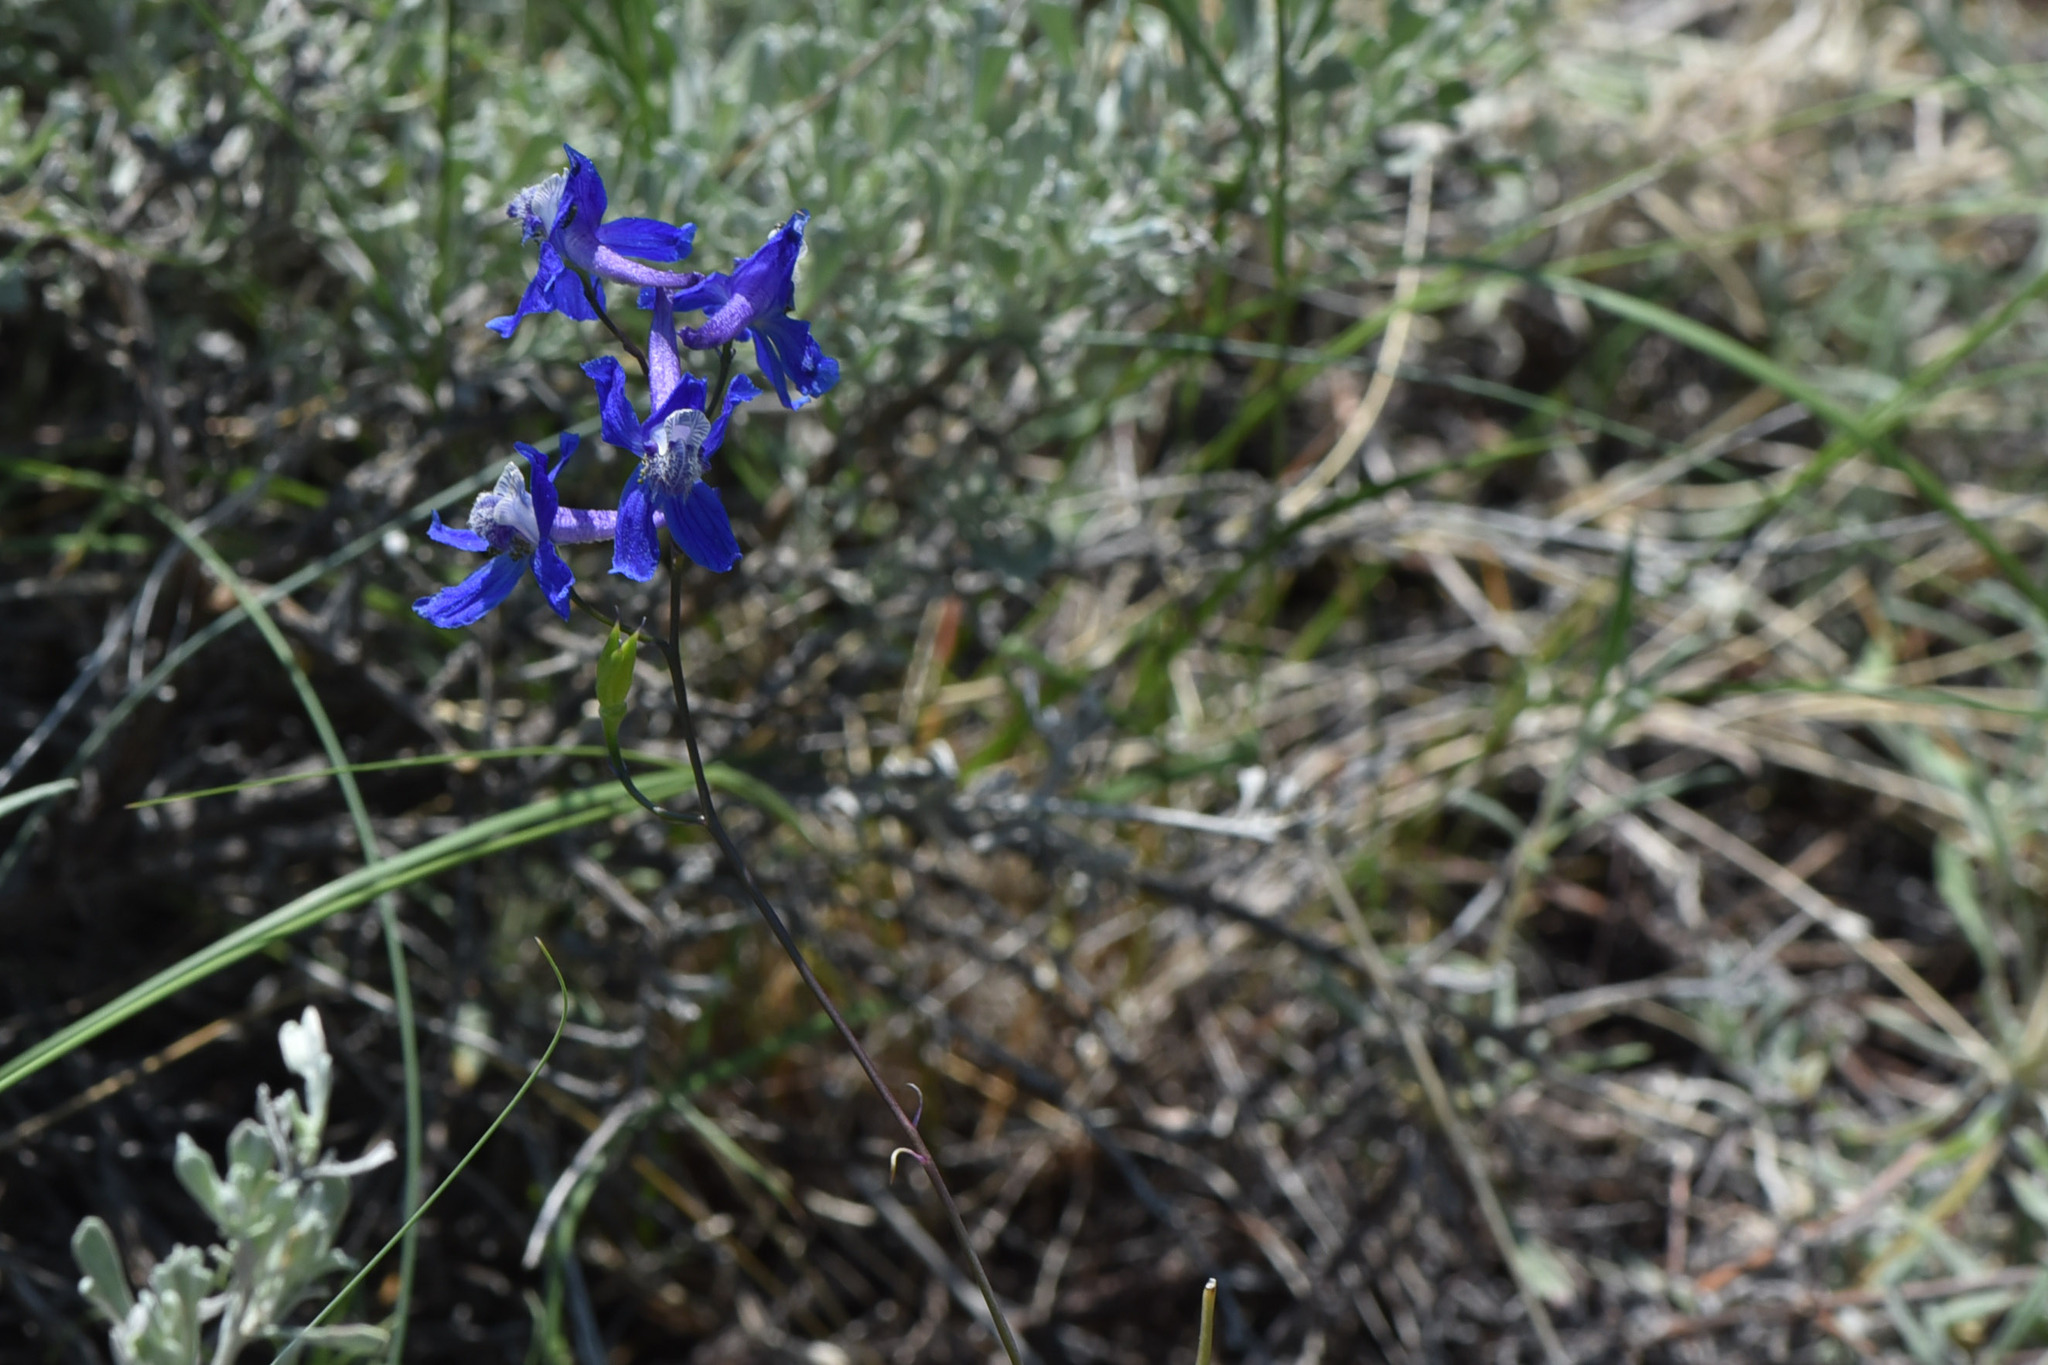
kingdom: Plantae
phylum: Tracheophyta
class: Magnoliopsida
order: Ranunculales
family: Ranunculaceae
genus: Delphinium
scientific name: Delphinium nuttallianum
